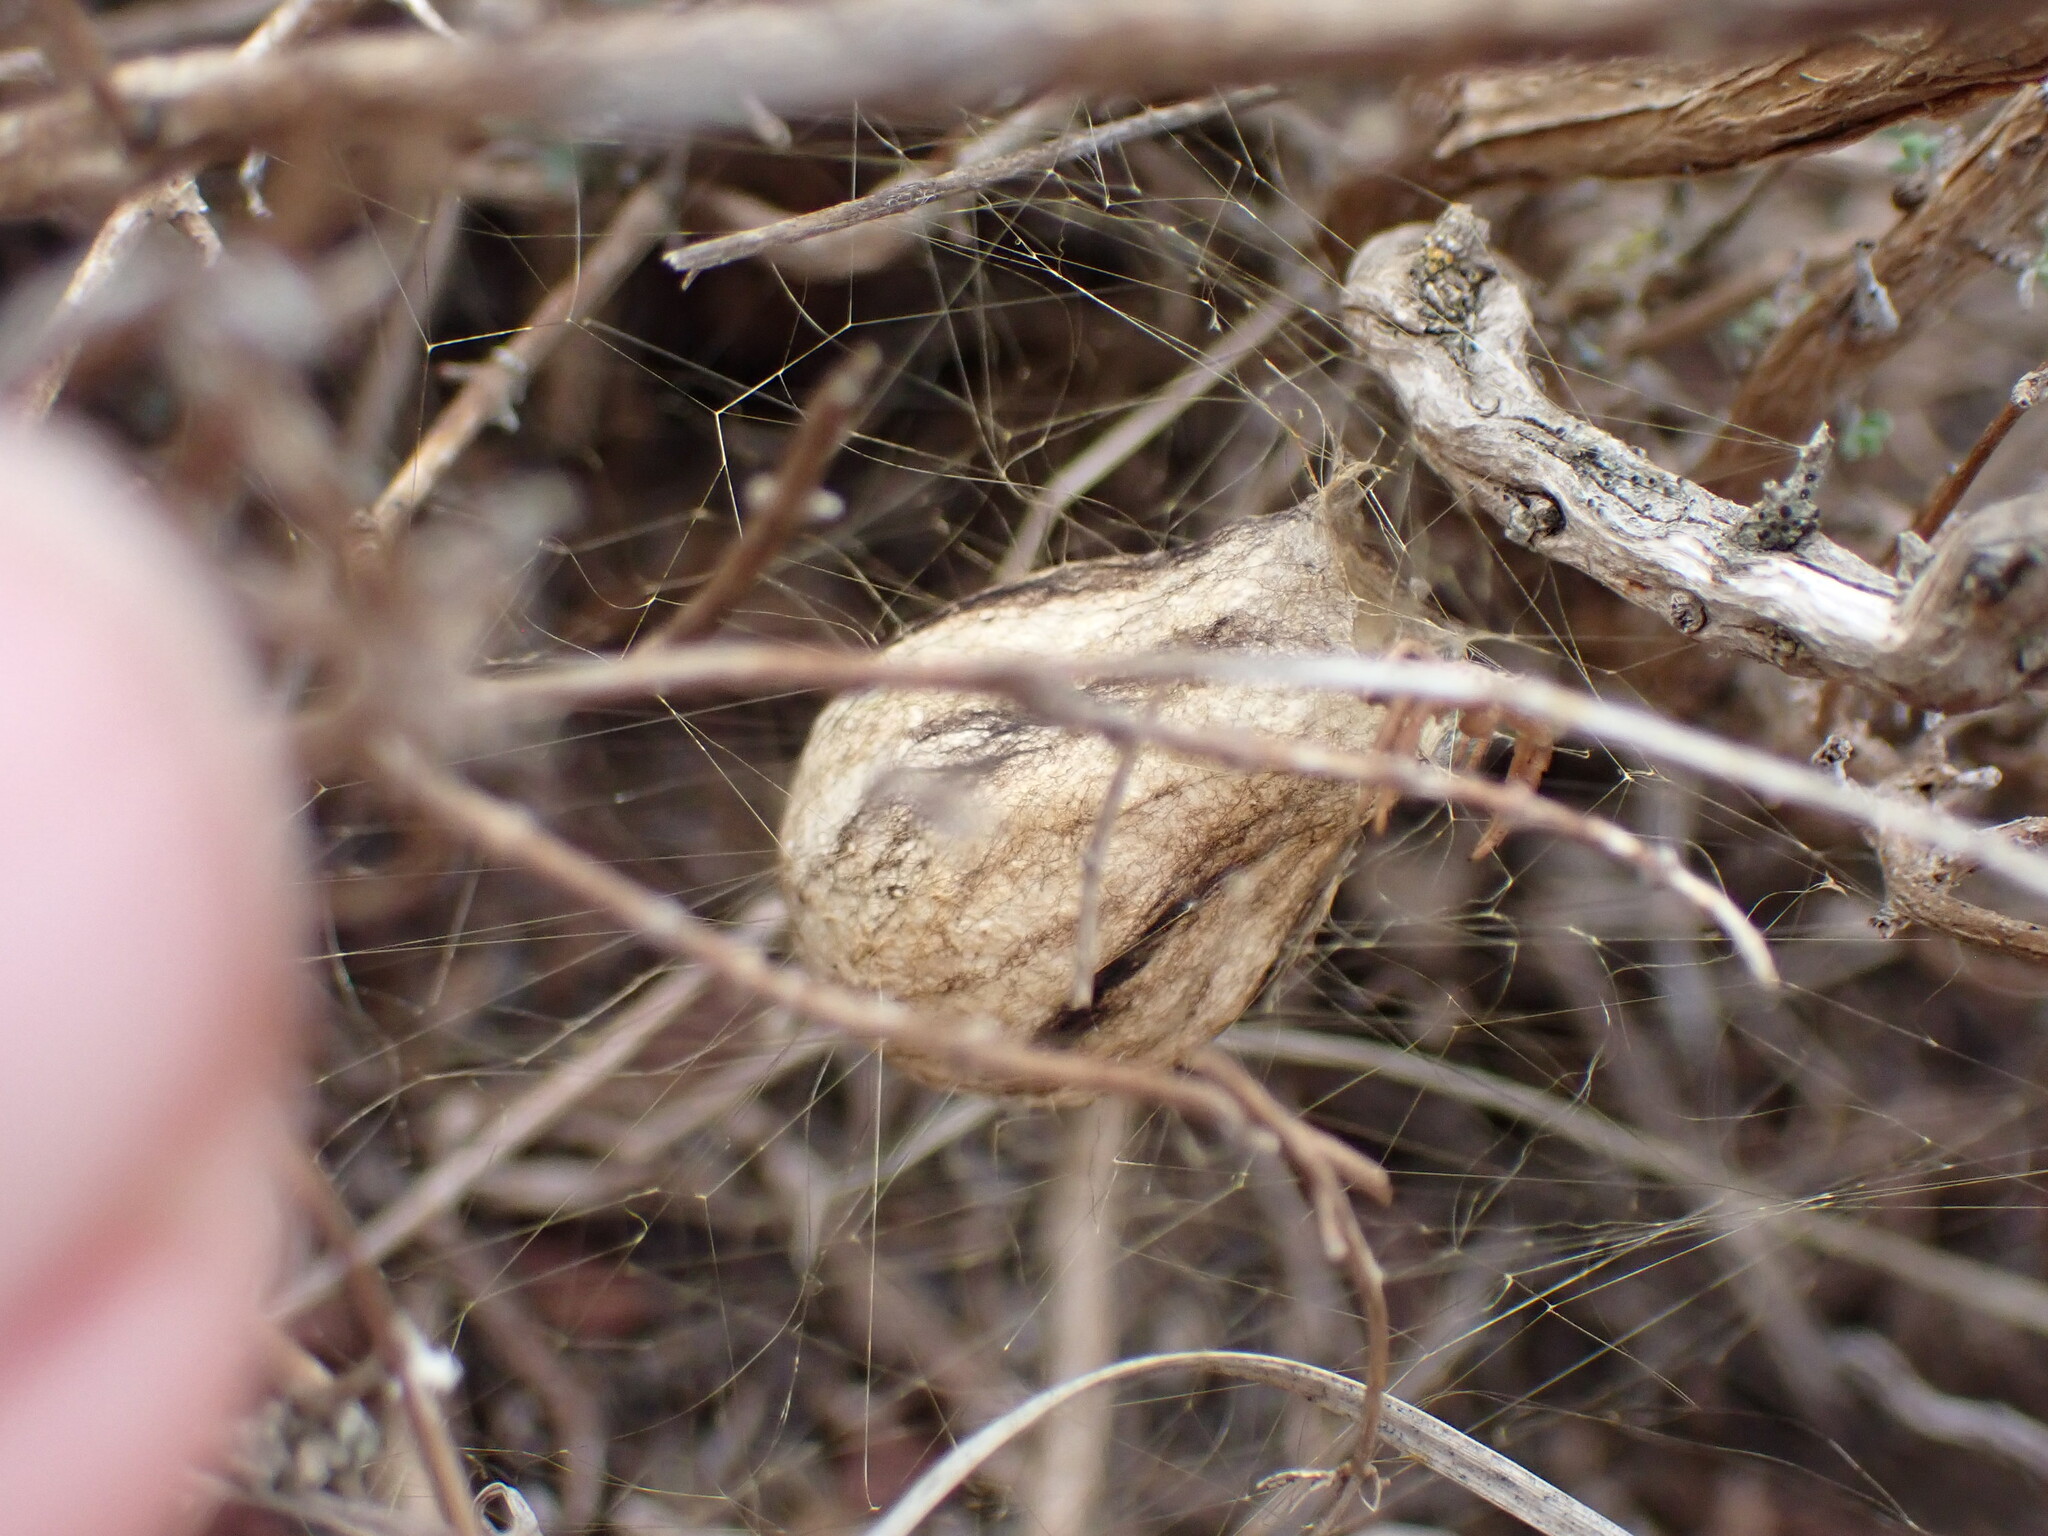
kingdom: Animalia
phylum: Arthropoda
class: Arachnida
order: Araneae
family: Araneidae
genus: Argiope
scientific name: Argiope bruennichi
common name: Wasp spider
